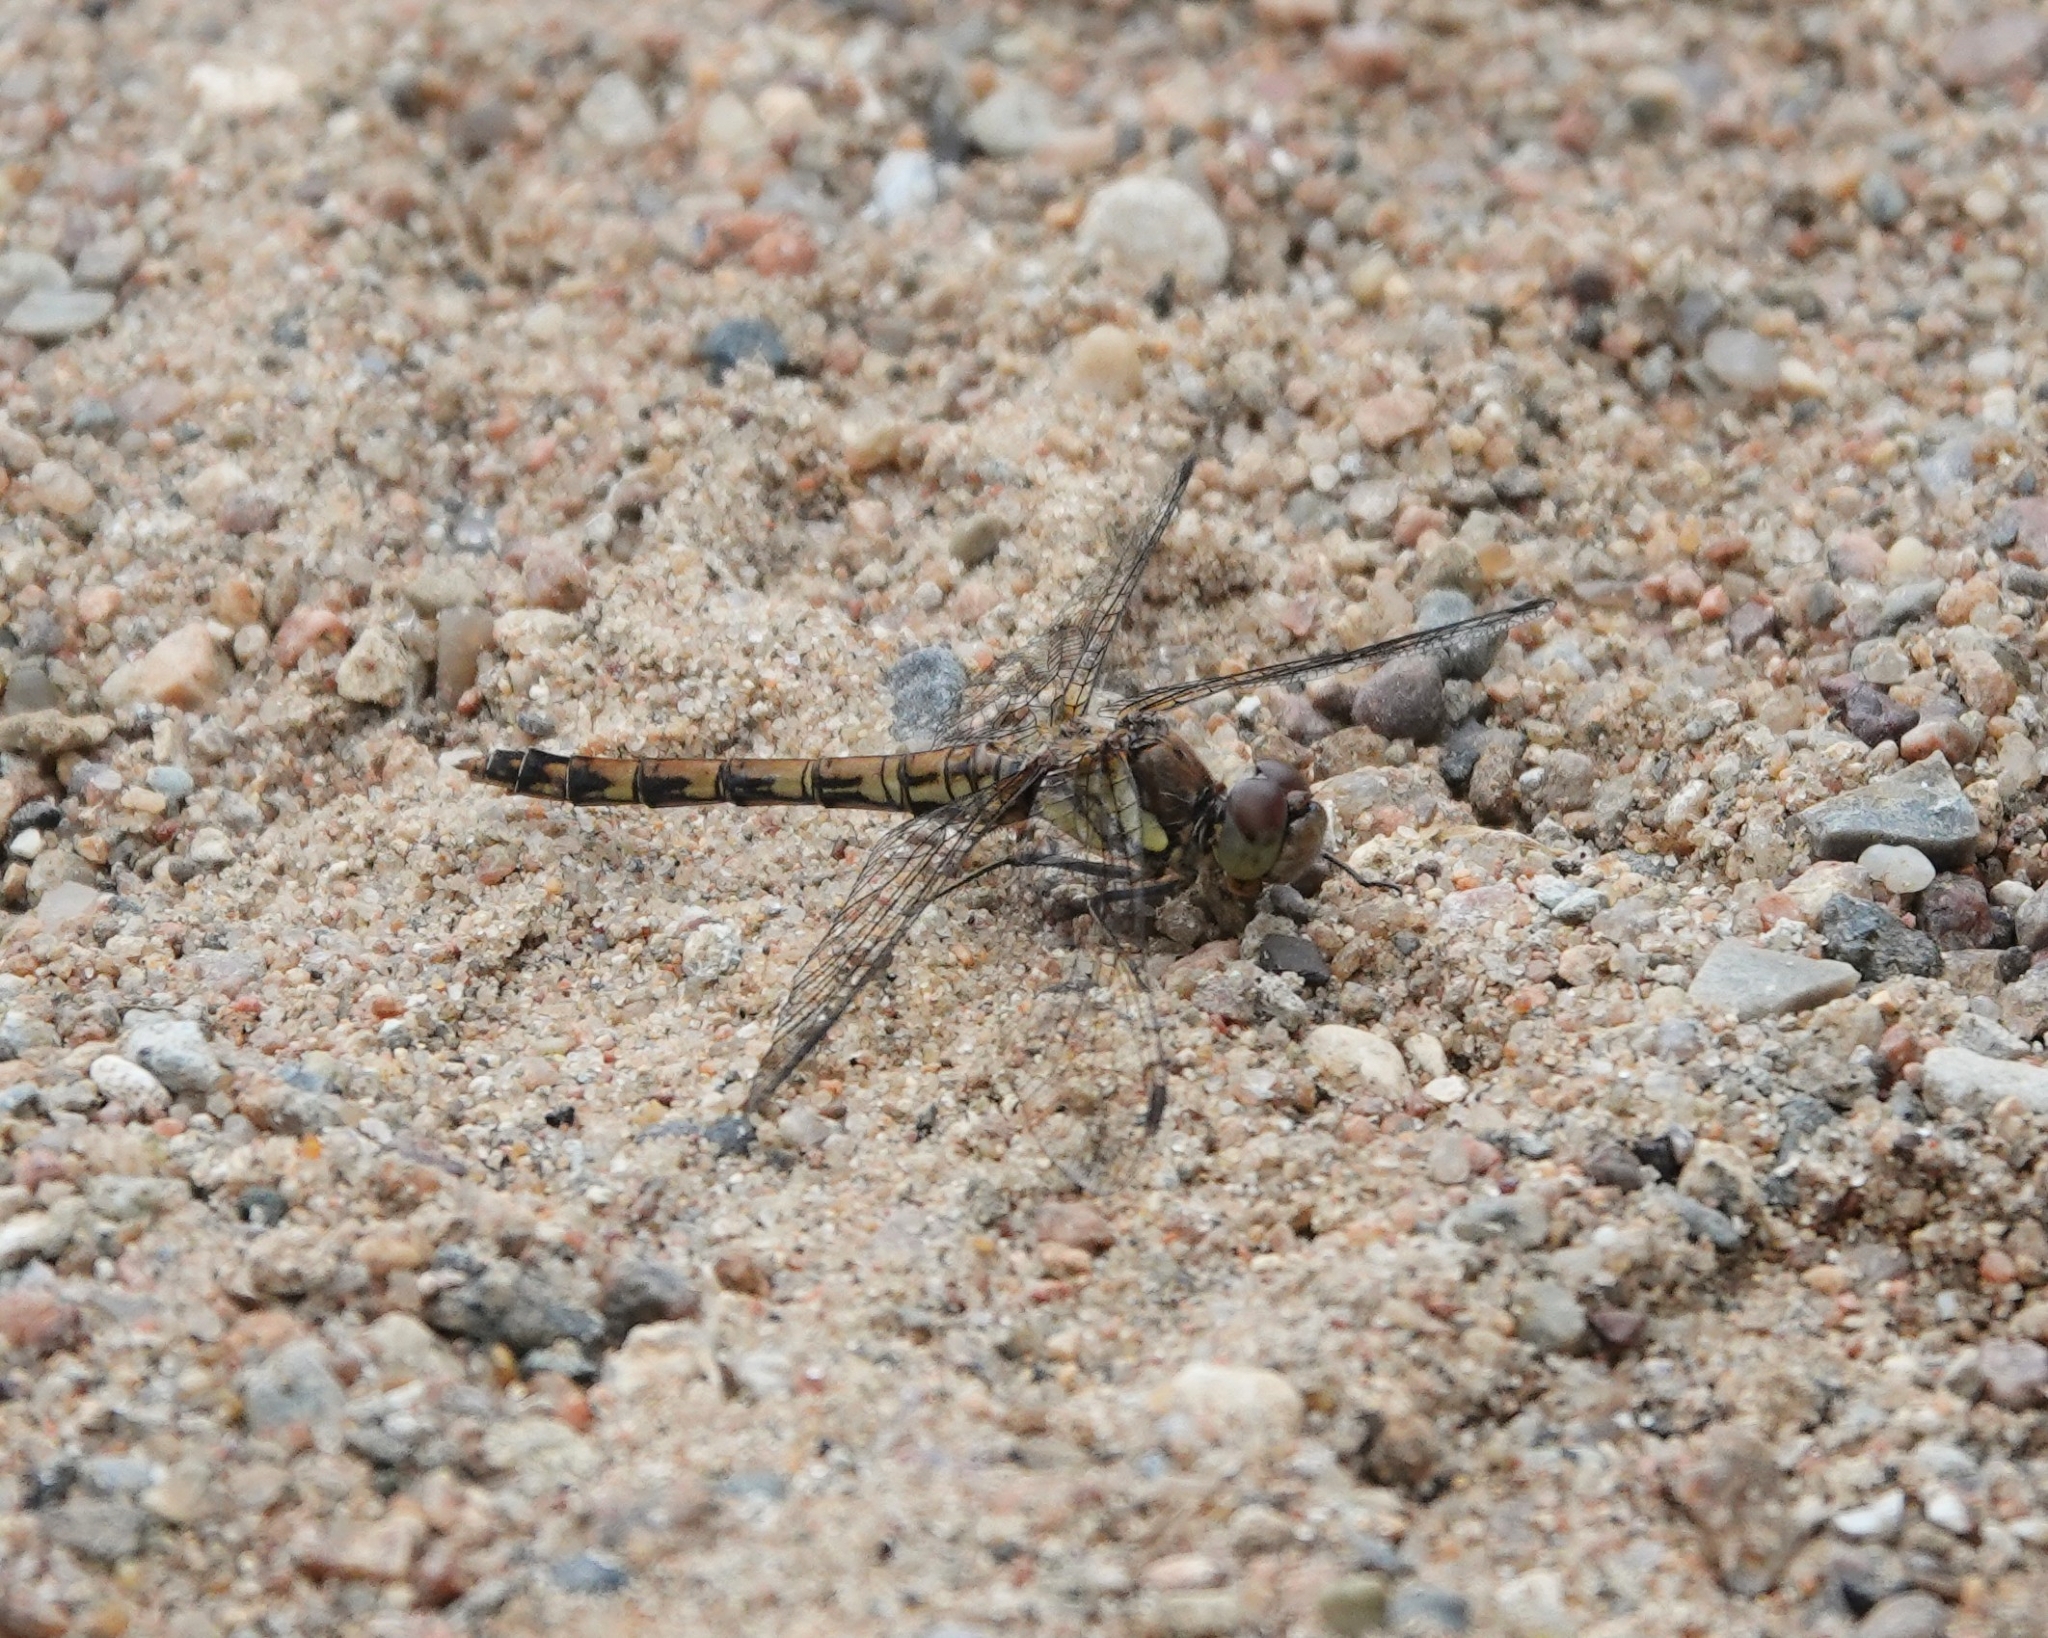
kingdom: Animalia
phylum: Arthropoda
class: Insecta
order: Odonata
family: Libellulidae
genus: Sympetrum
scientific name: Sympetrum striolatum
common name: Common darter
